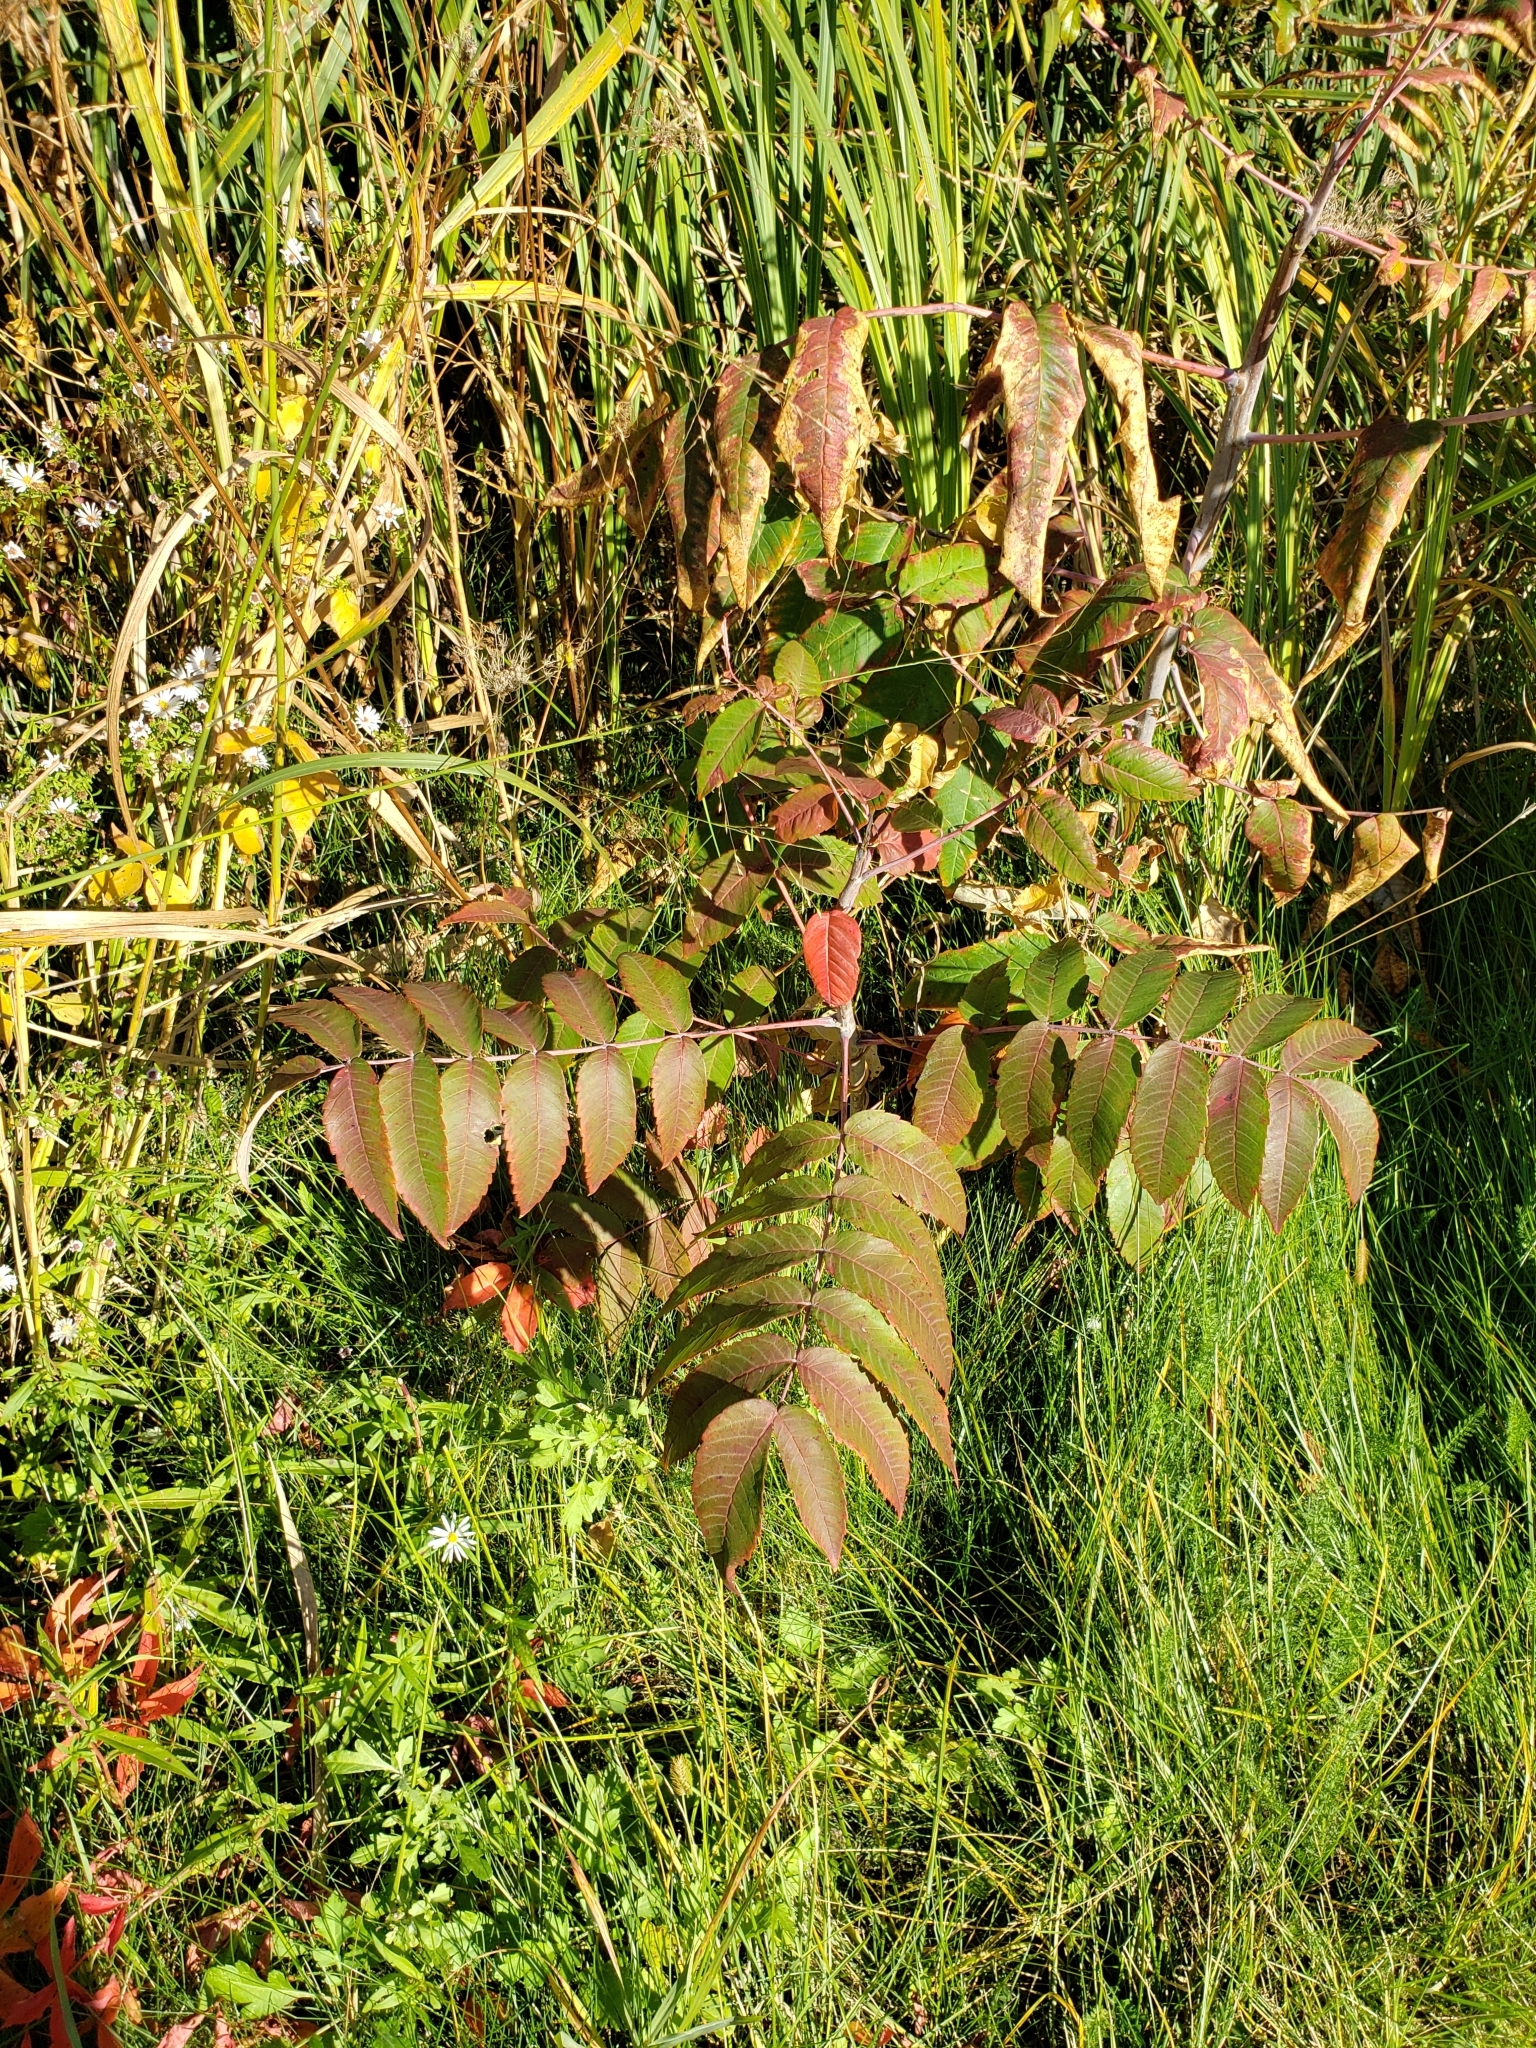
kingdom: Plantae
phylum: Tracheophyta
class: Magnoliopsida
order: Sapindales
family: Anacardiaceae
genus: Rhus
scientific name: Rhus glabra
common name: Scarlet sumac
